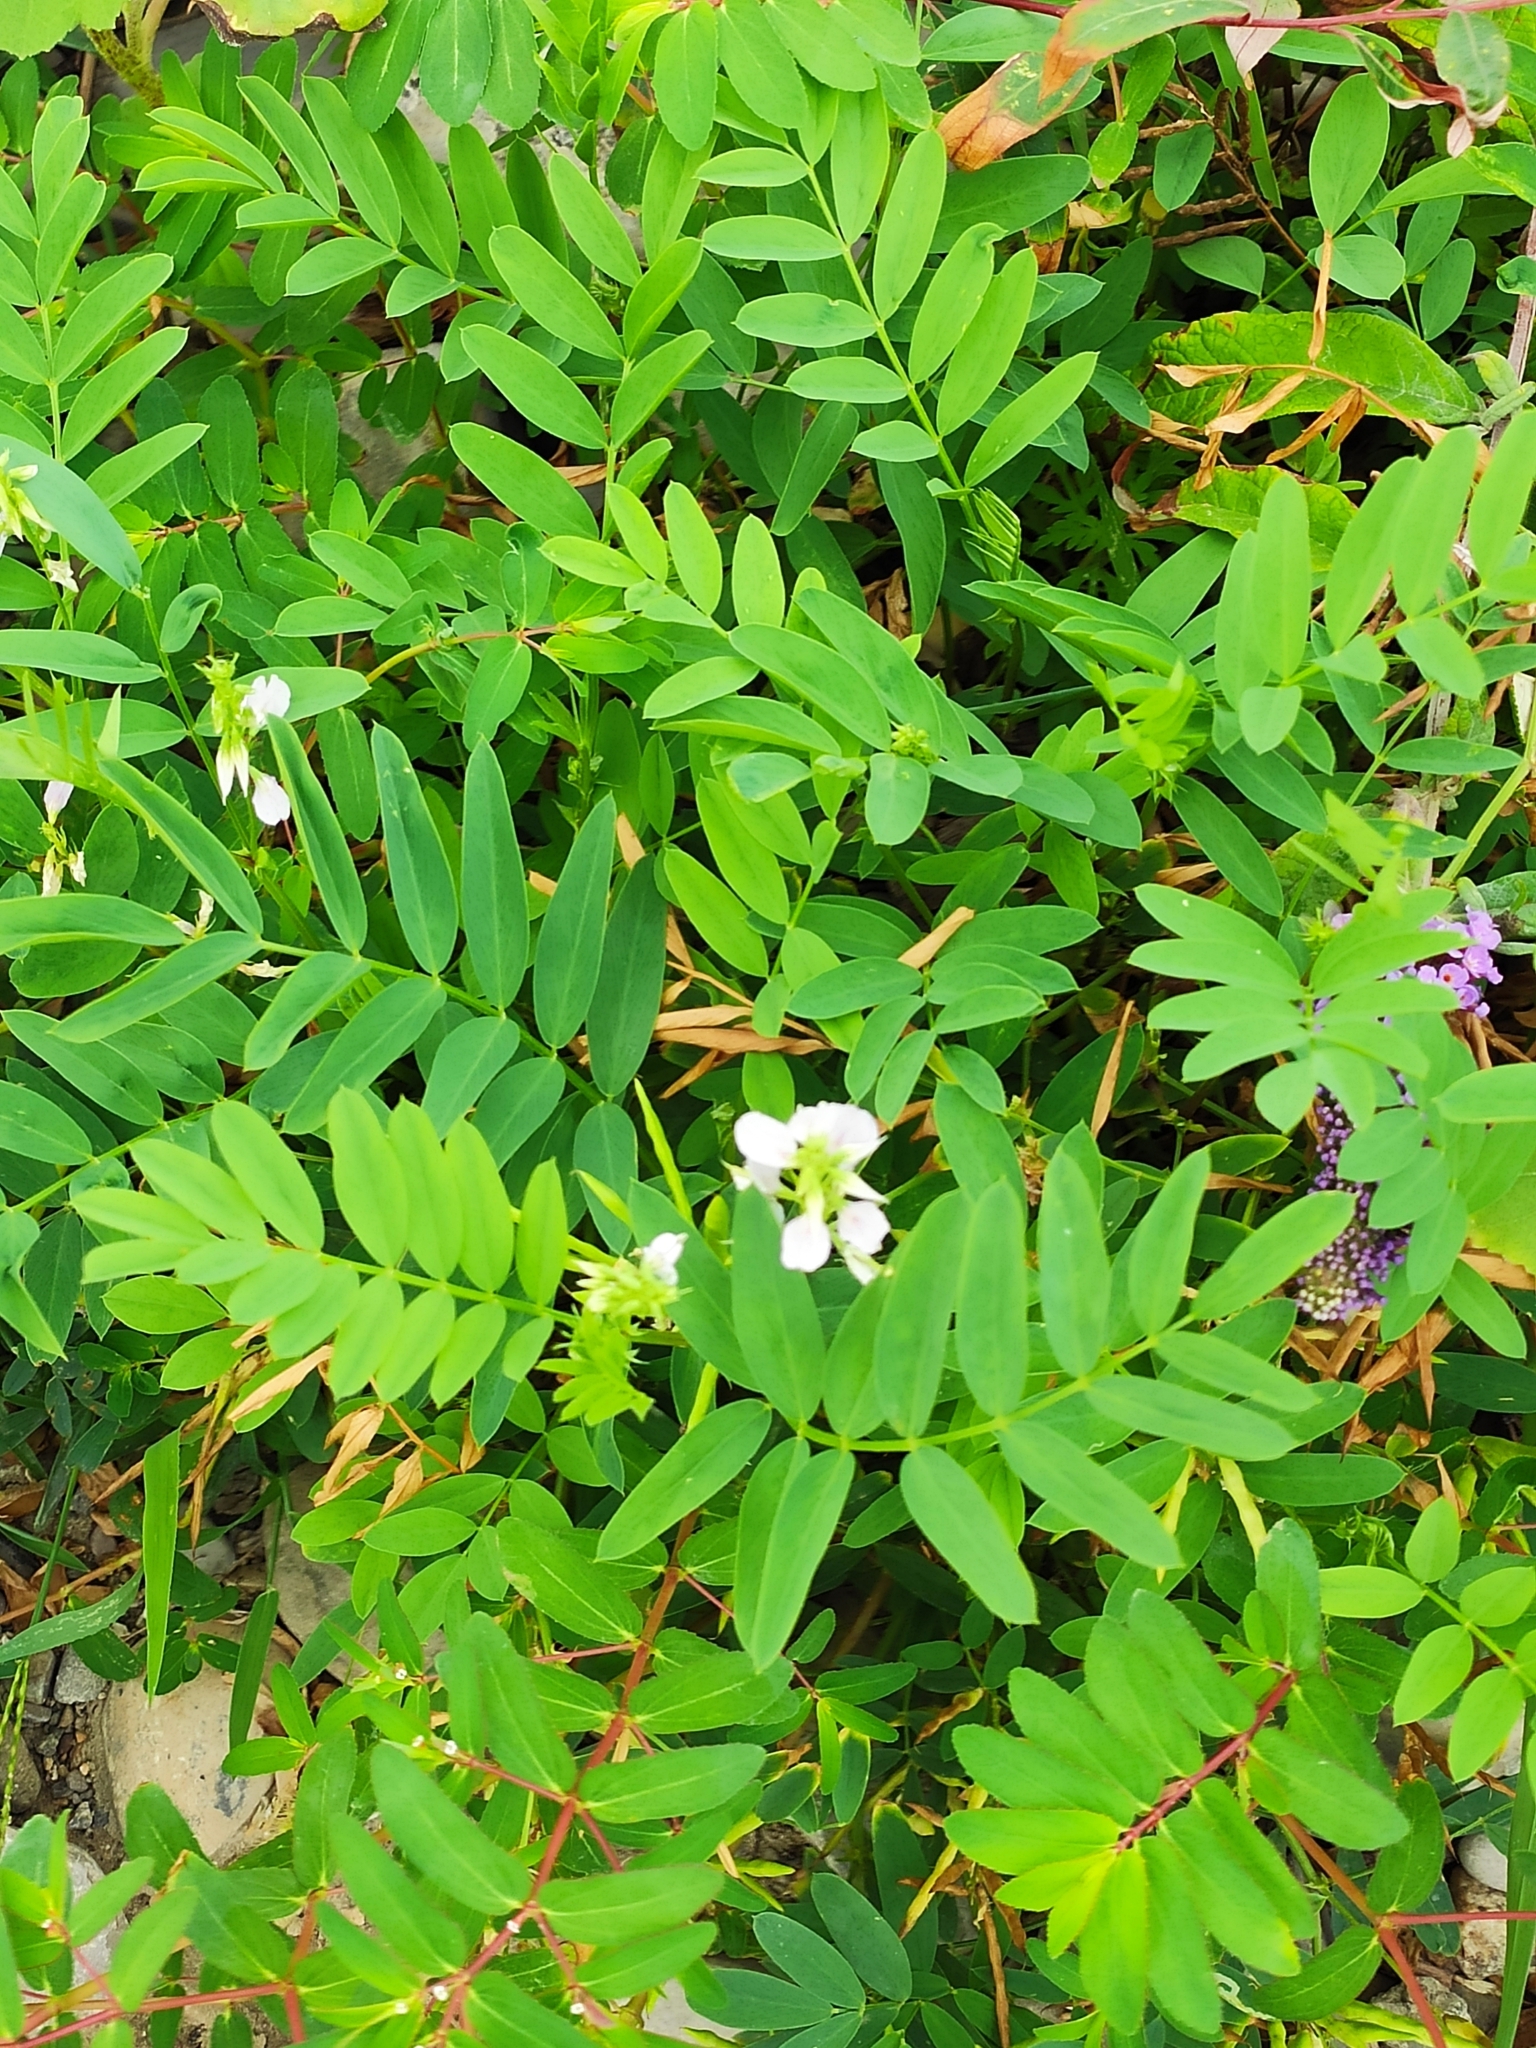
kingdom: Plantae
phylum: Tracheophyta
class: Magnoliopsida
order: Fabales
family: Fabaceae
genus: Galega
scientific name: Galega officinalis
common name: Goat's-rue
